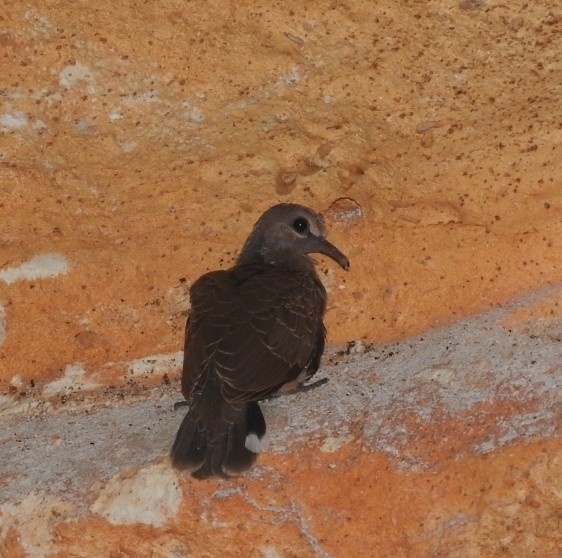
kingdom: Animalia
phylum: Chordata
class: Aves
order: Columbiformes
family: Columbidae
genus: Columbina
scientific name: Columbina talpacoti
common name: Ruddy ground dove
